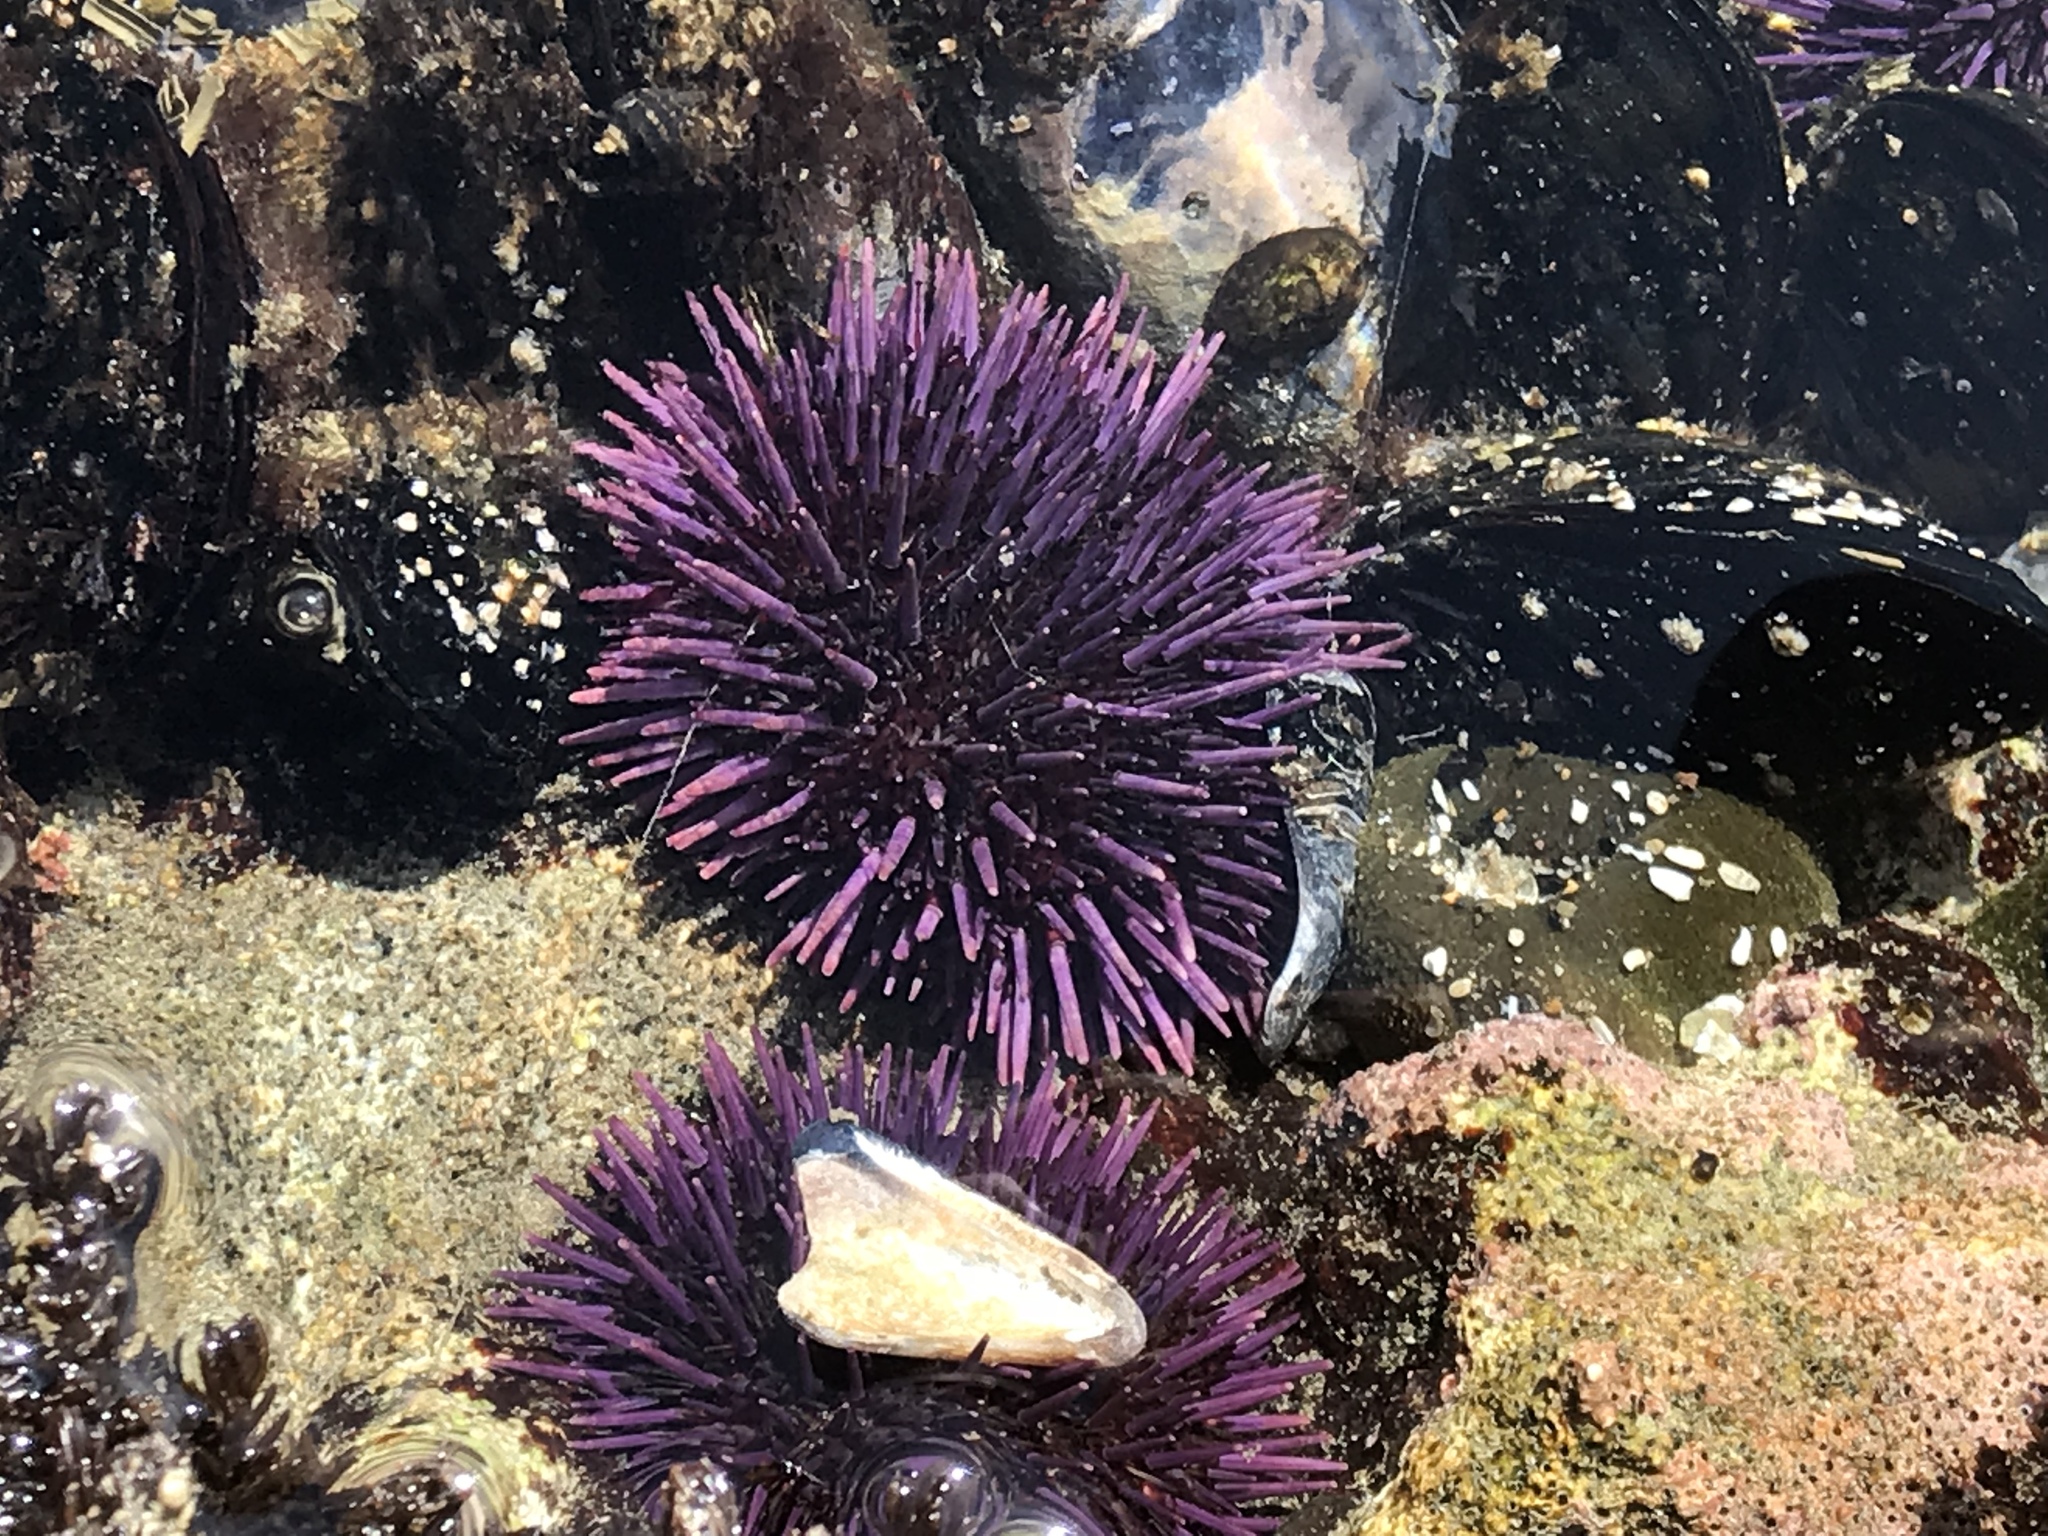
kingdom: Animalia
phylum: Echinodermata
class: Echinoidea
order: Camarodonta
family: Strongylocentrotidae
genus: Strongylocentrotus
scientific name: Strongylocentrotus purpuratus
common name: Purple sea urchin
